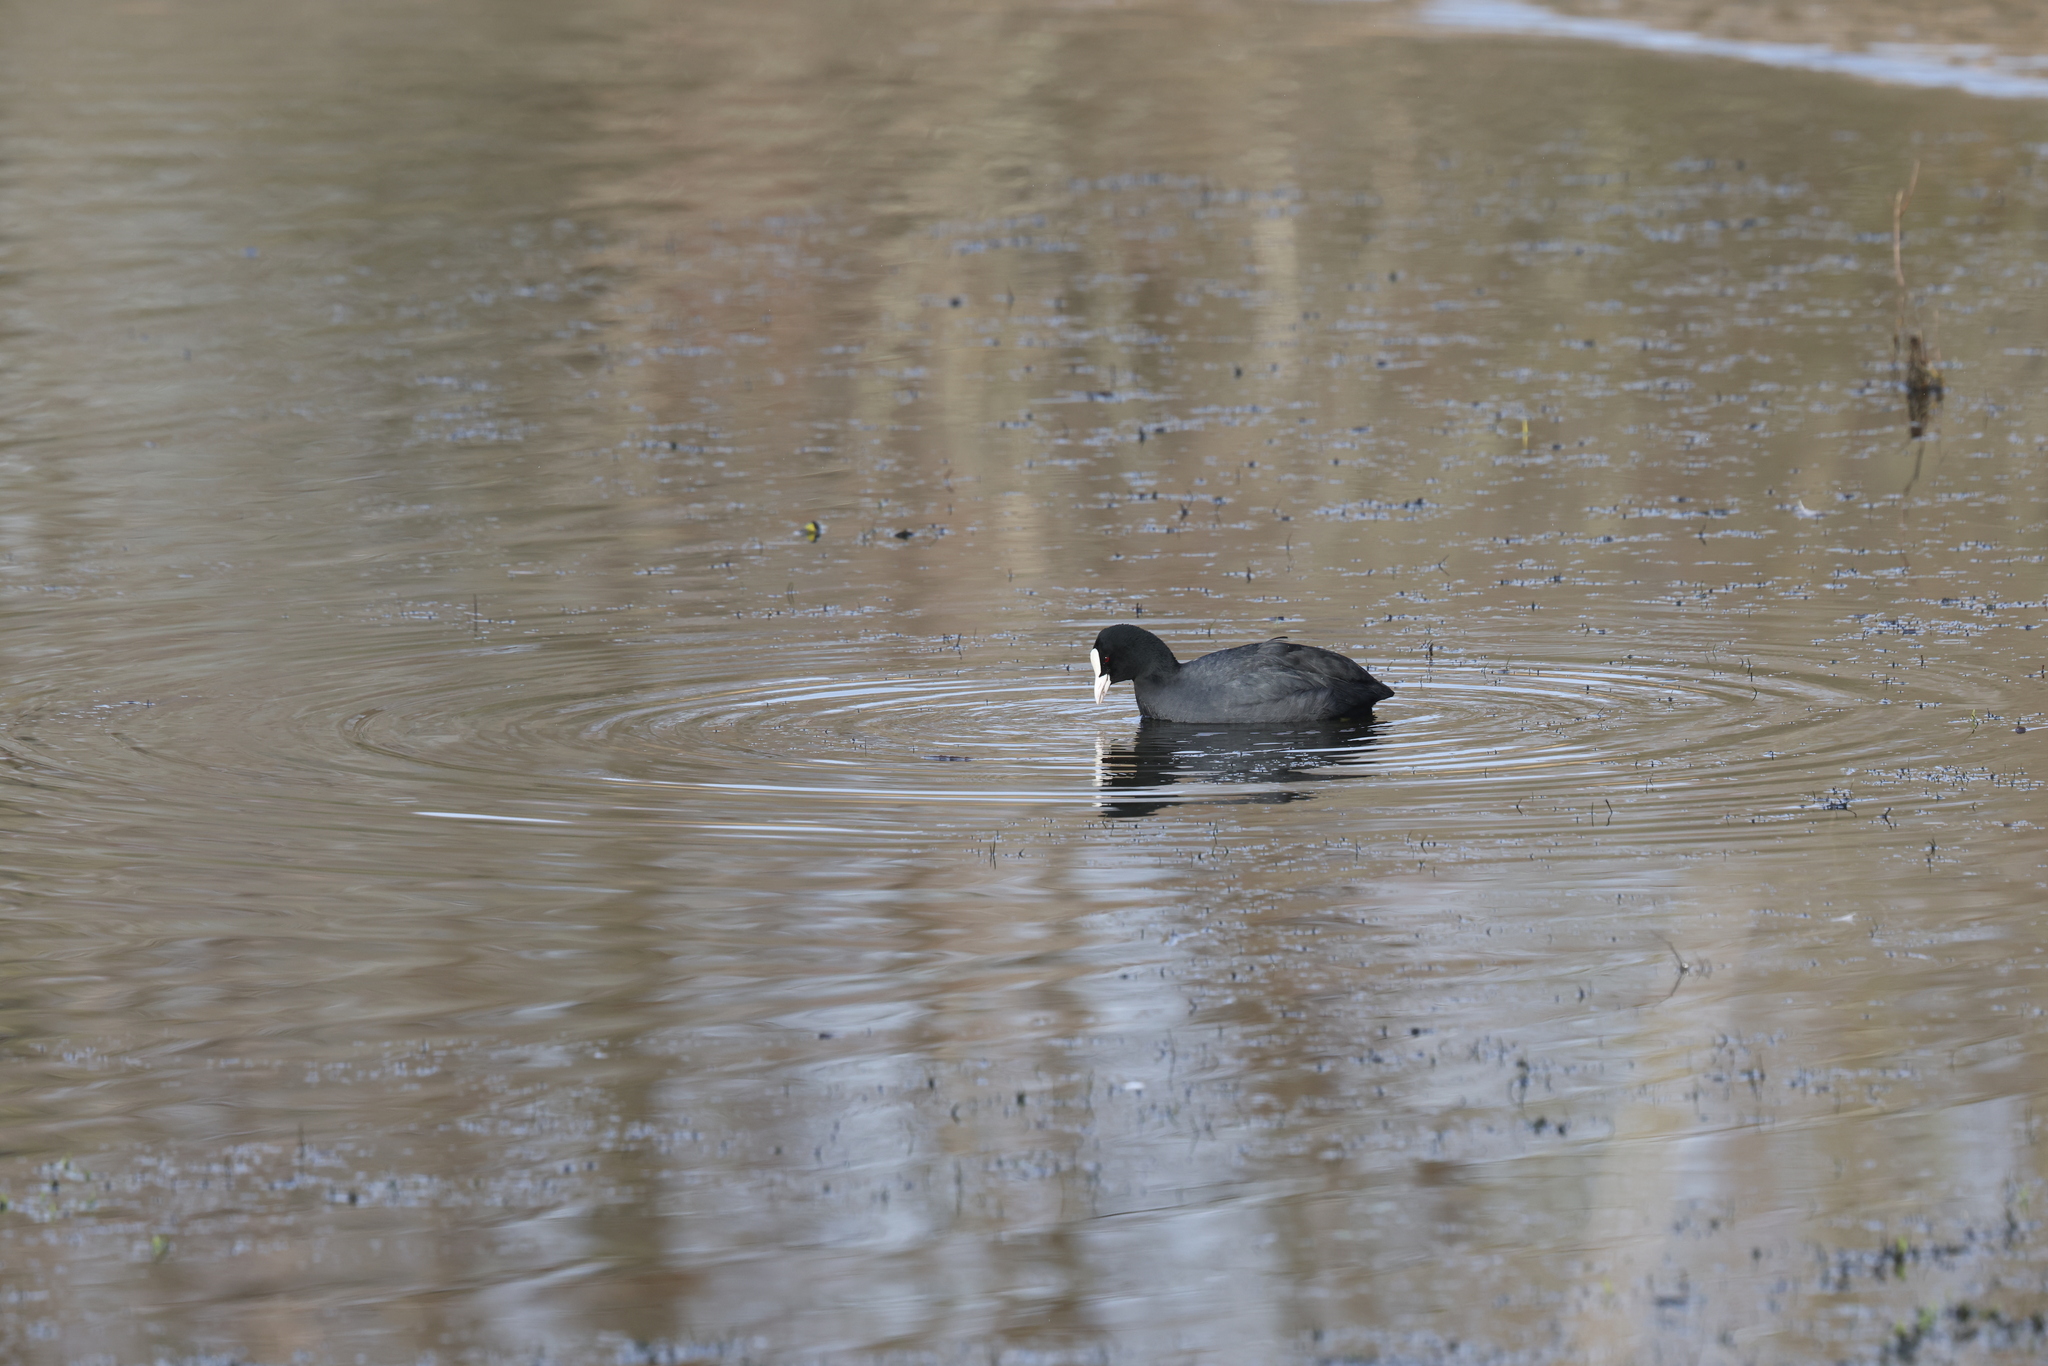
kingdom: Animalia
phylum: Chordata
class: Aves
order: Gruiformes
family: Rallidae
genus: Fulica
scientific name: Fulica atra
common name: Eurasian coot
